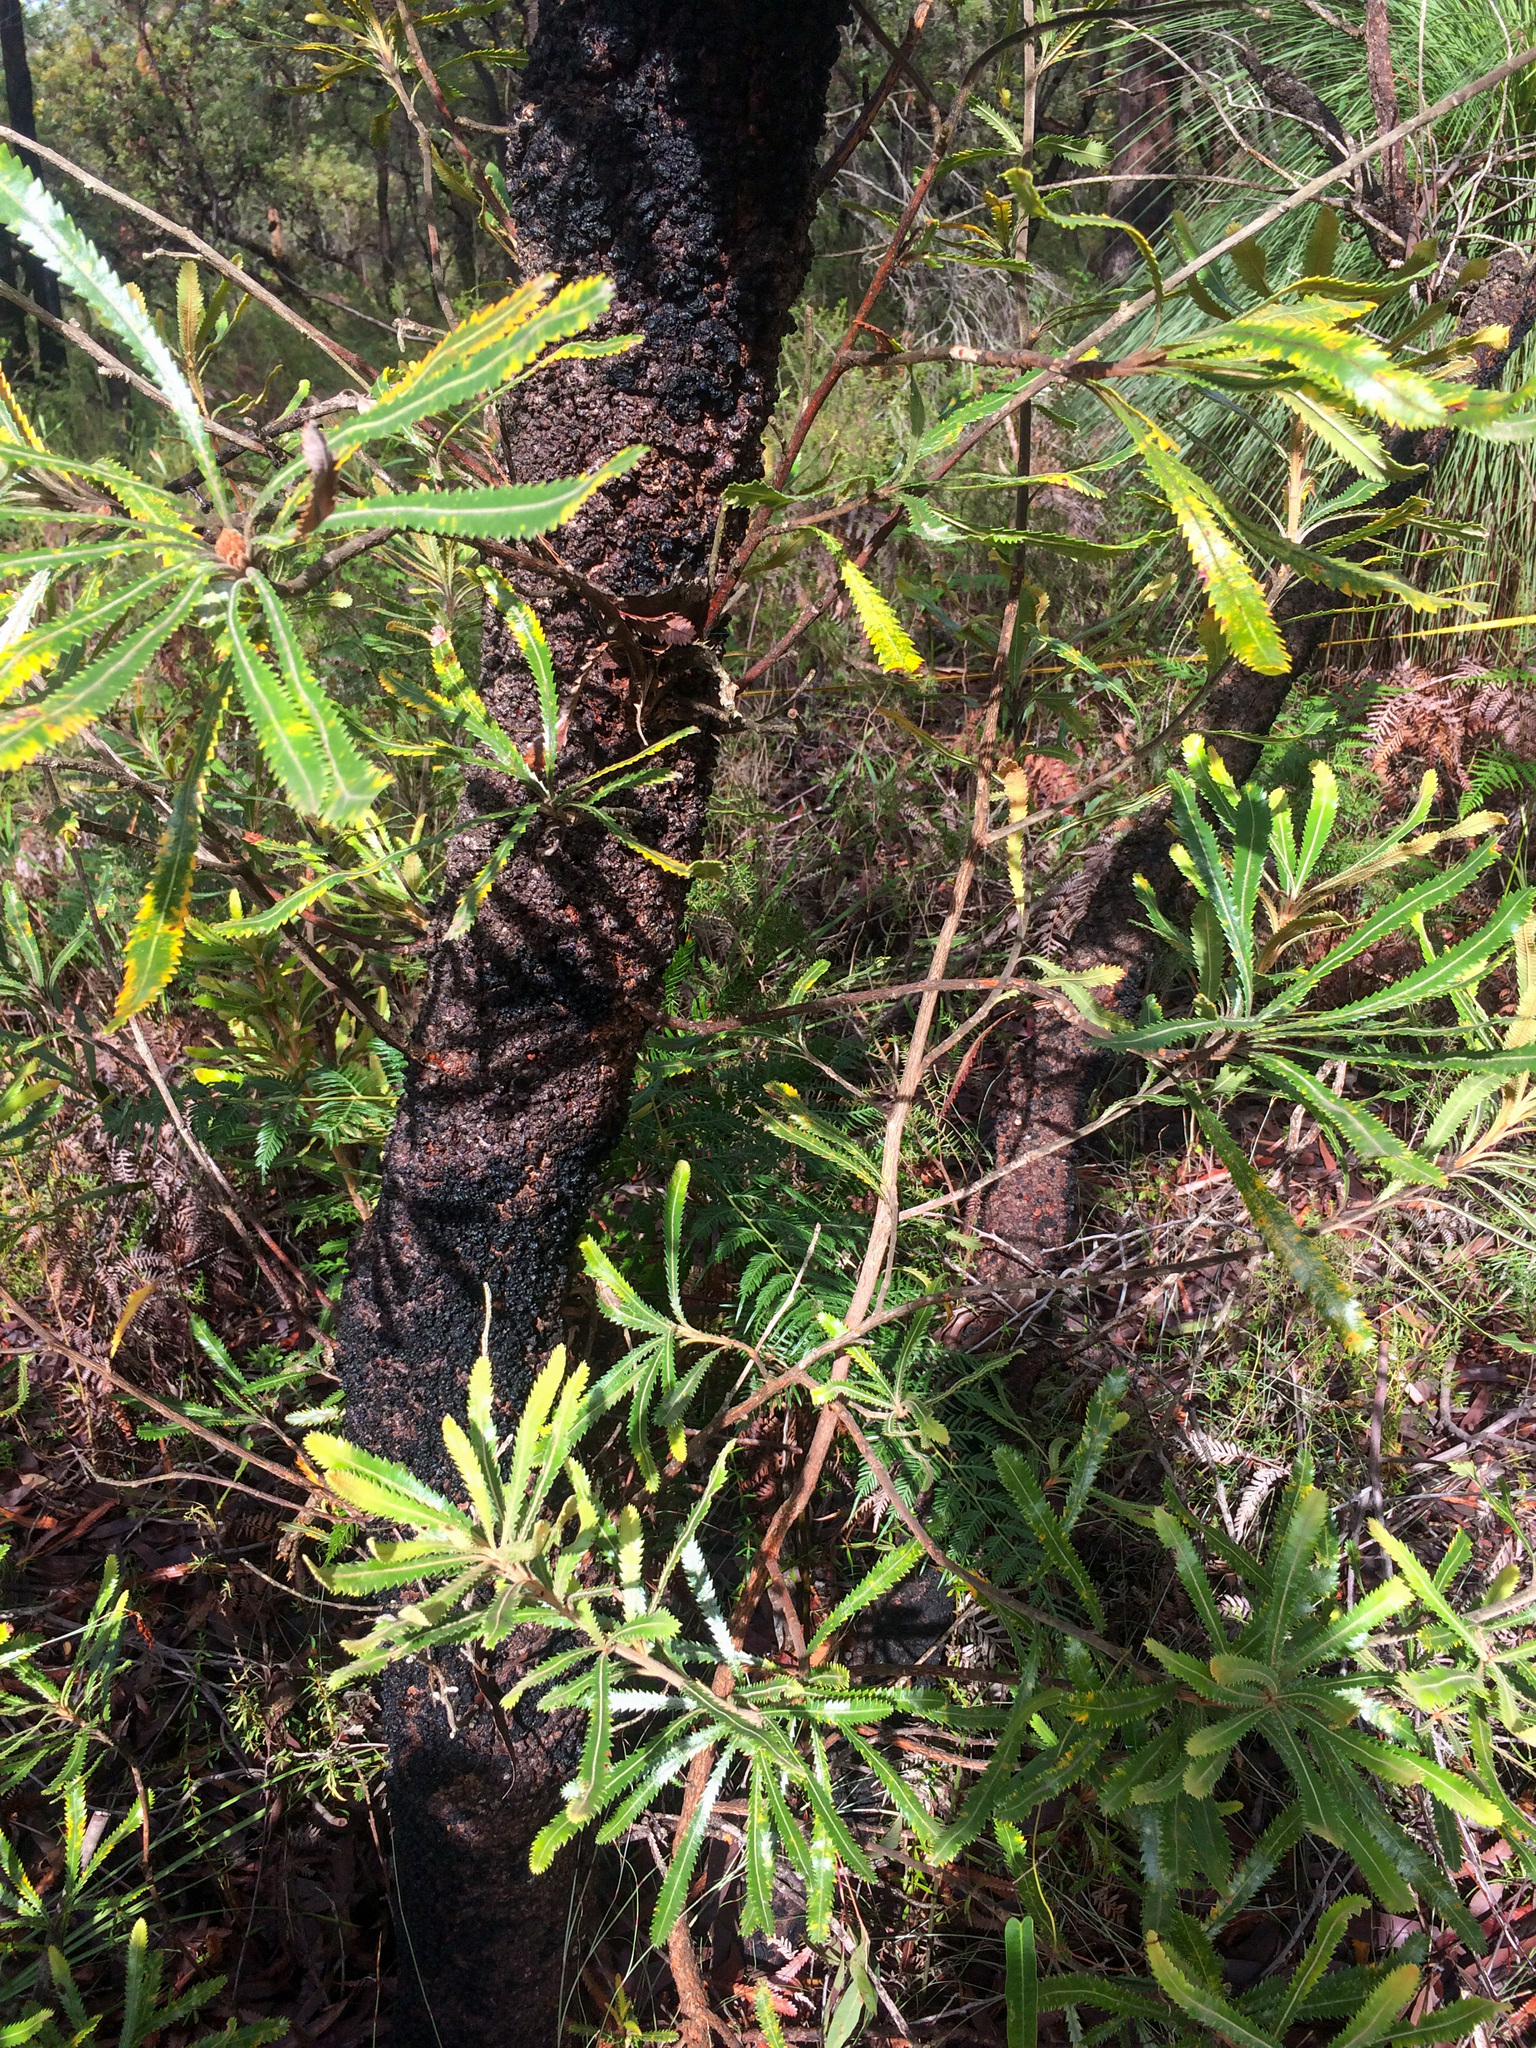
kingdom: Plantae
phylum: Tracheophyta
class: Magnoliopsida
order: Proteales
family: Proteaceae
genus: Banksia
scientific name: Banksia serrata
